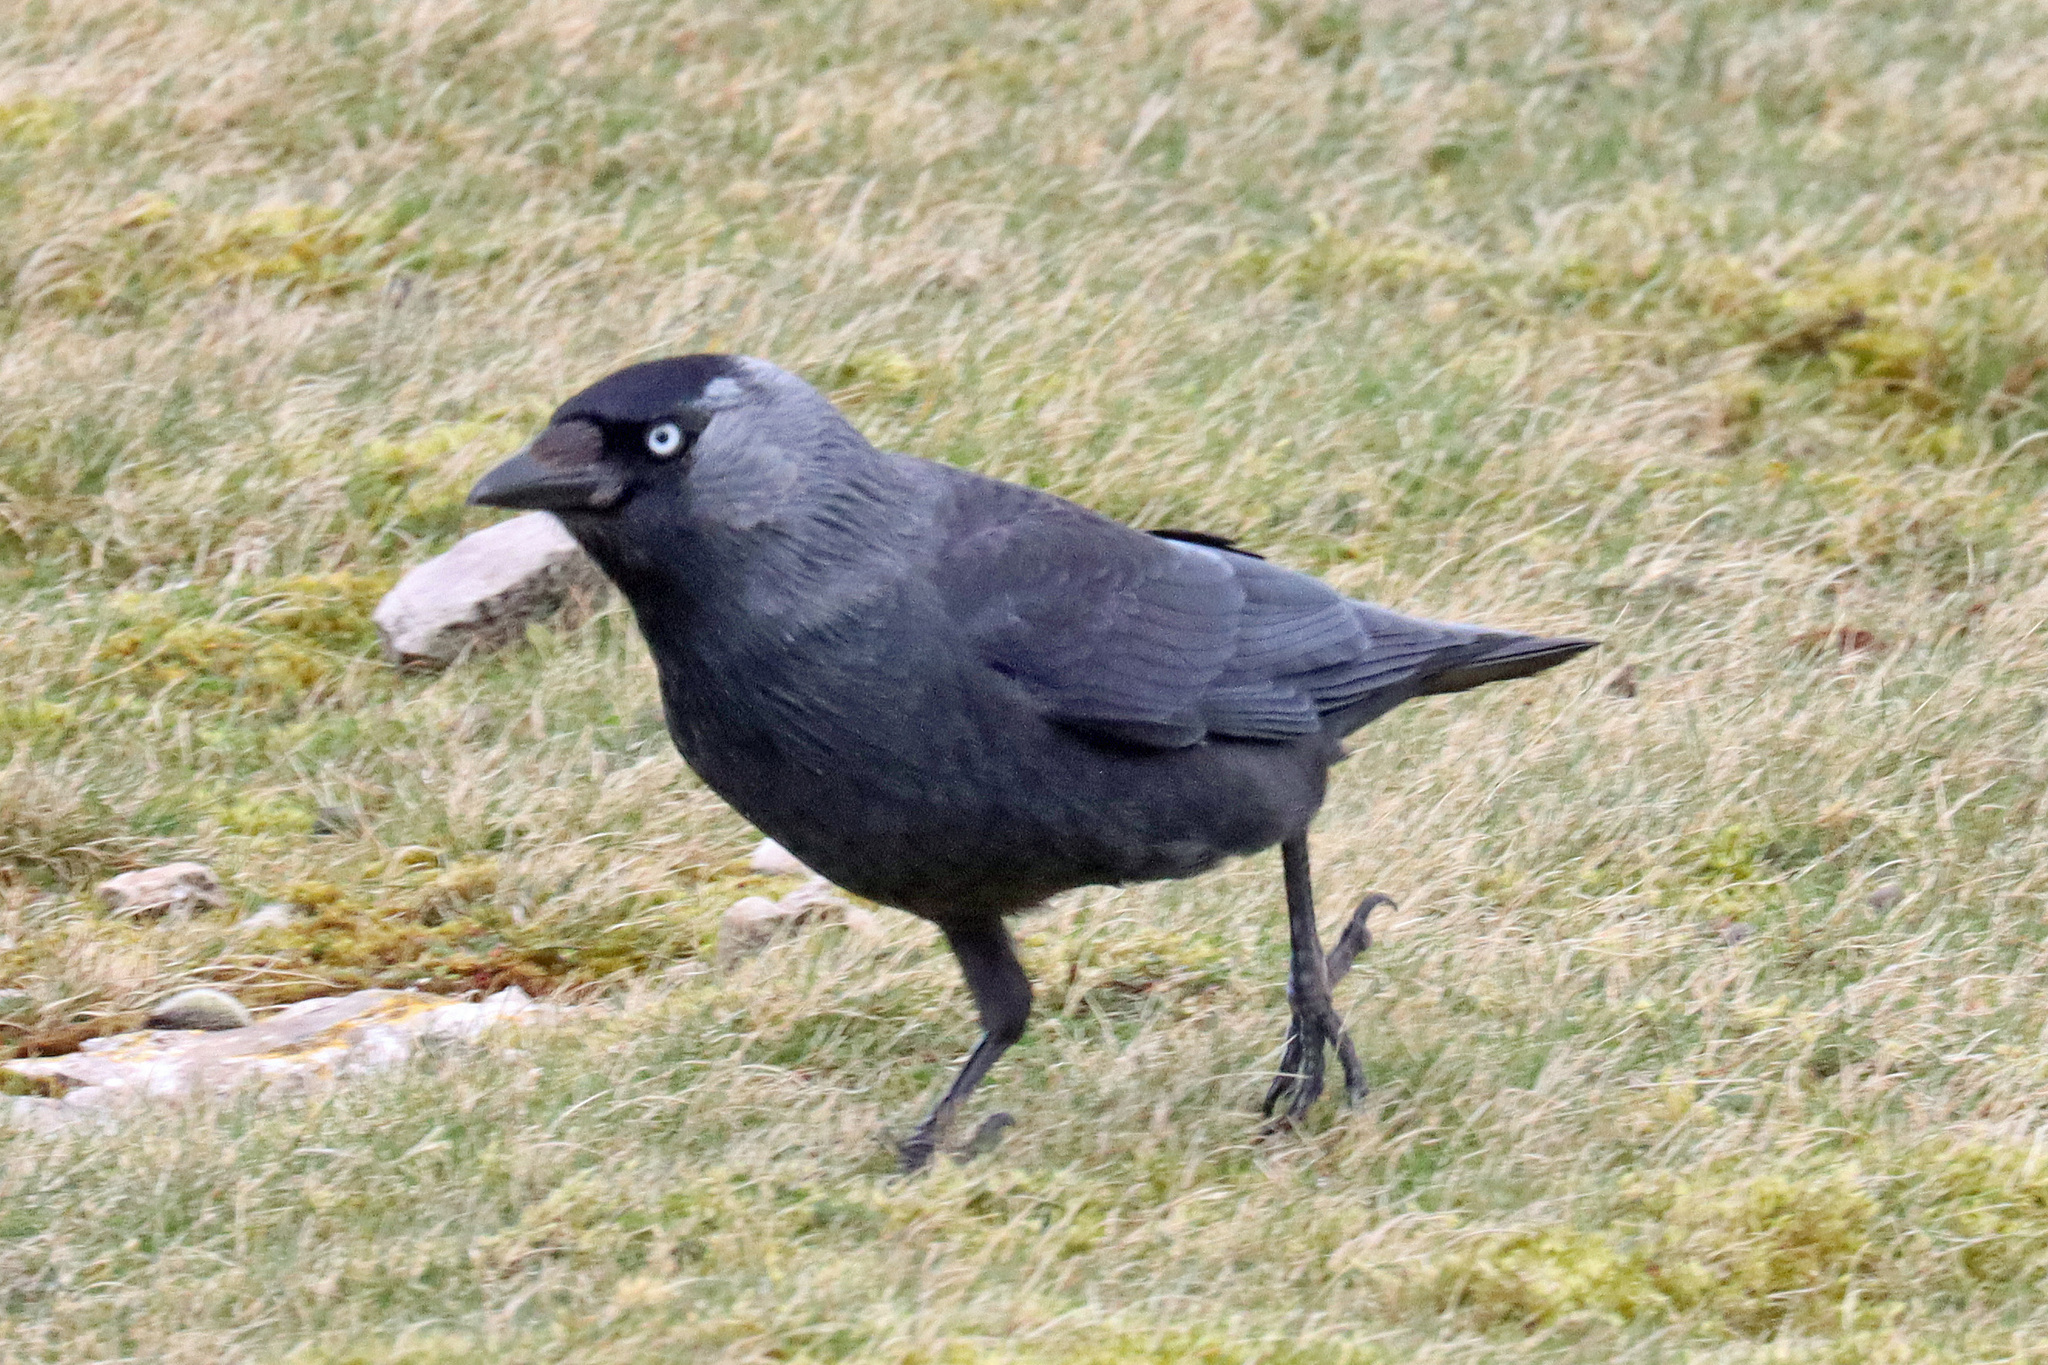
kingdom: Animalia
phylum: Chordata
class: Aves
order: Passeriformes
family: Corvidae
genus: Coloeus
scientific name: Coloeus monedula
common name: Western jackdaw
